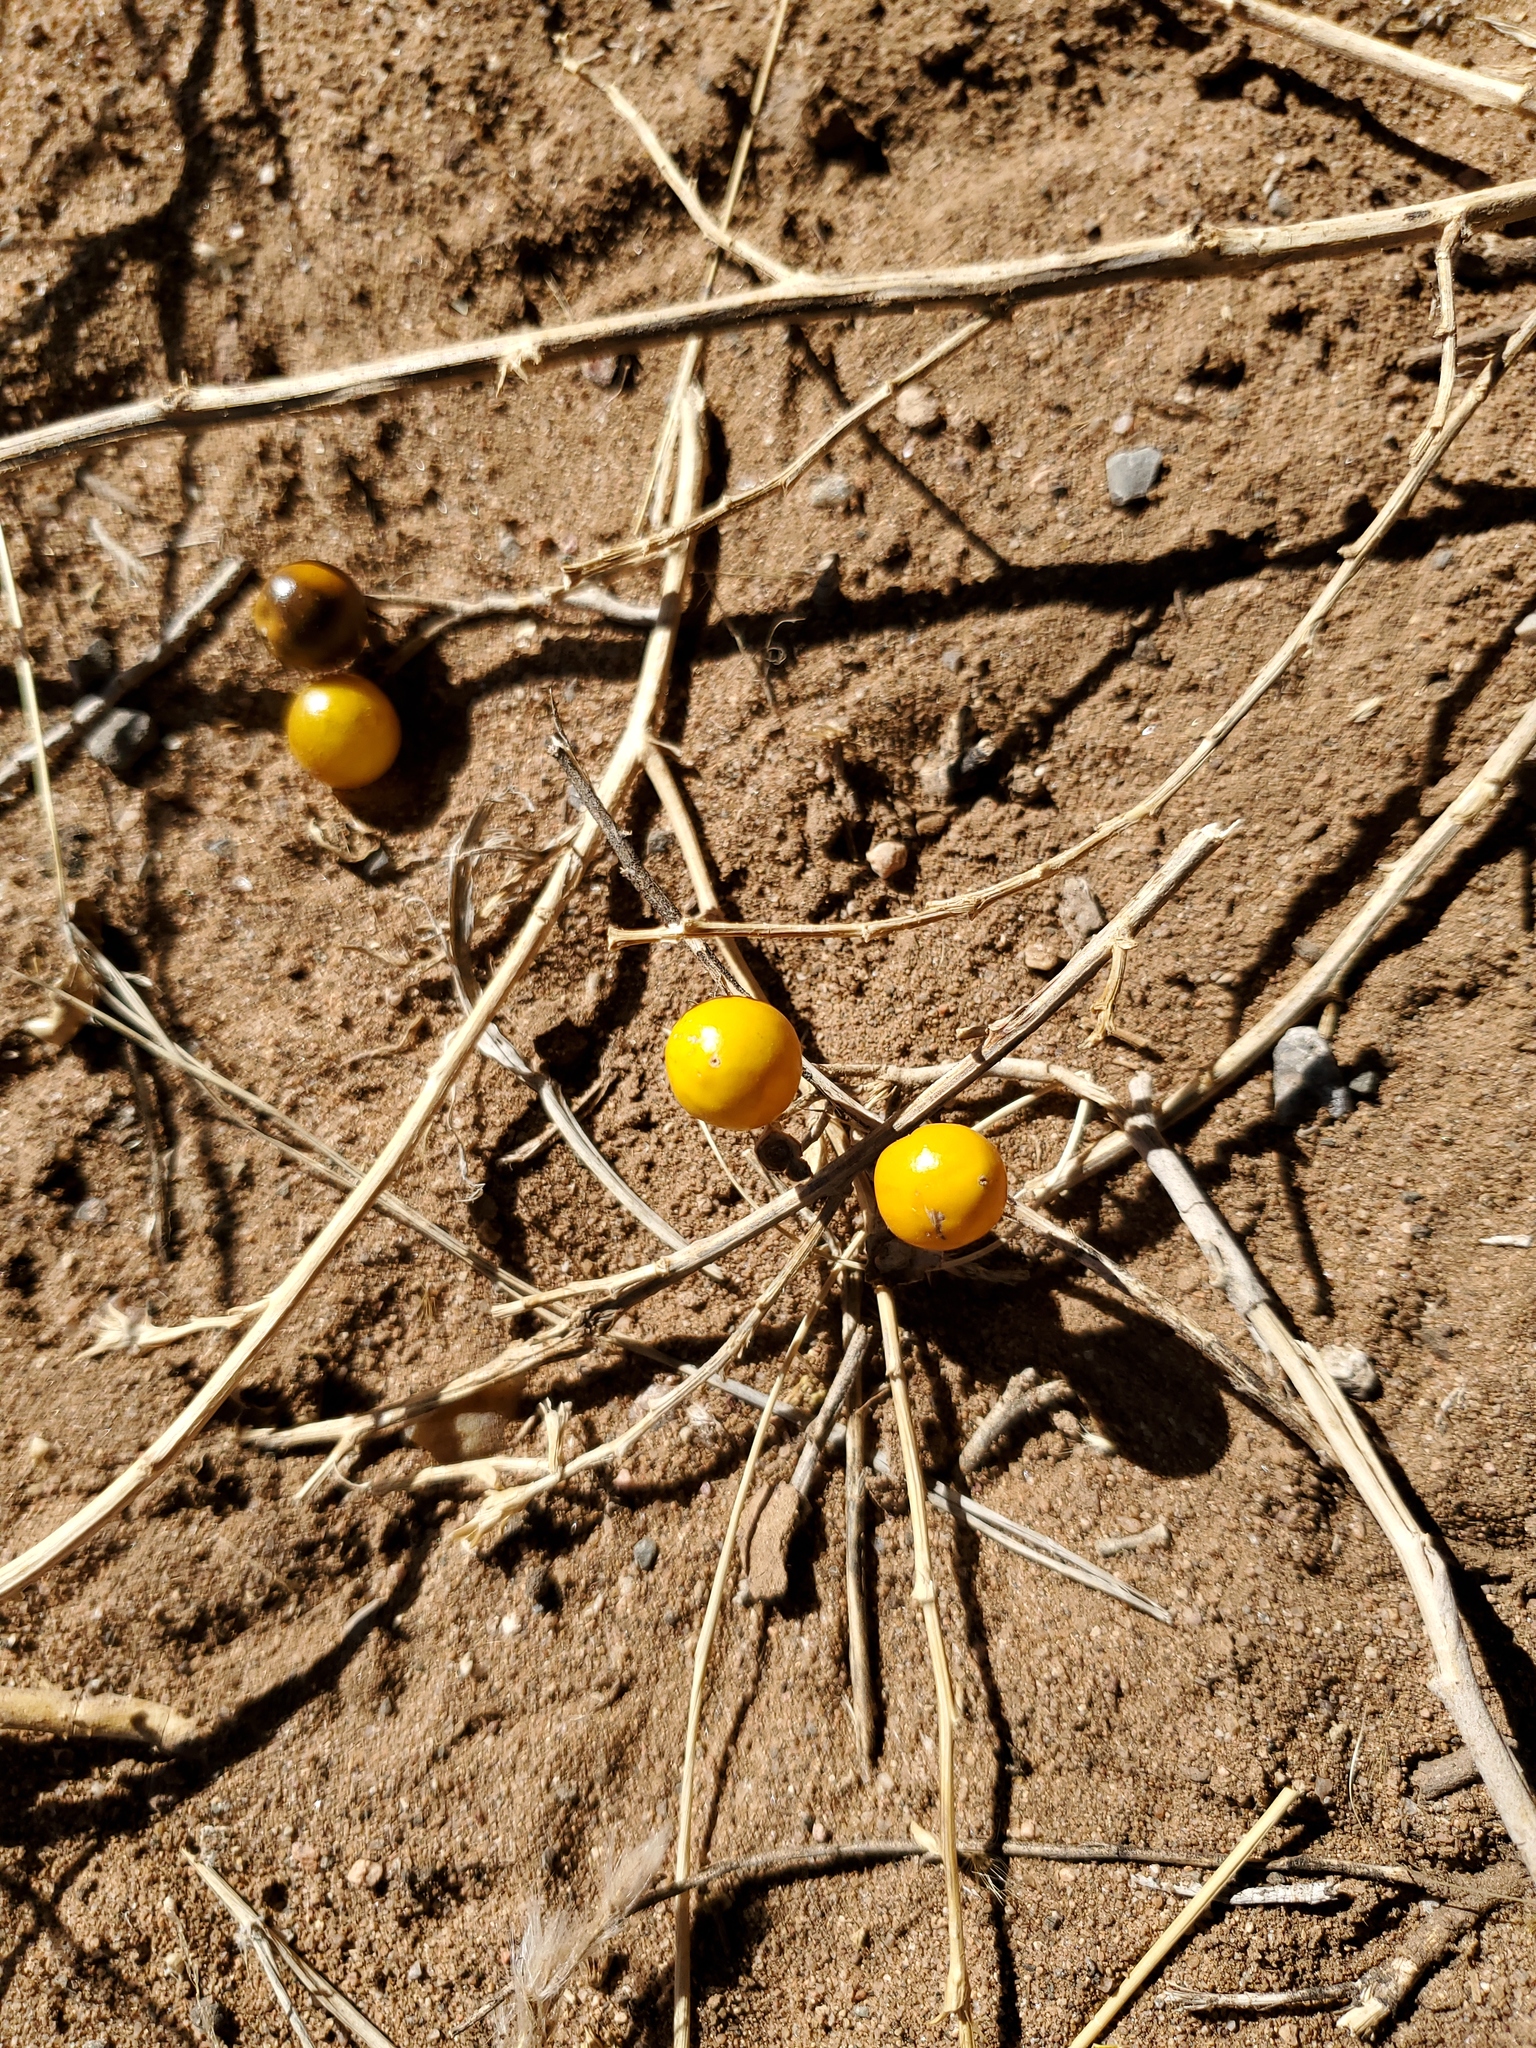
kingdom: Plantae
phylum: Tracheophyta
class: Magnoliopsida
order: Solanales
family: Solanaceae
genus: Solanum
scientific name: Solanum elaeagnifolium
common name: Silverleaf nightshade
